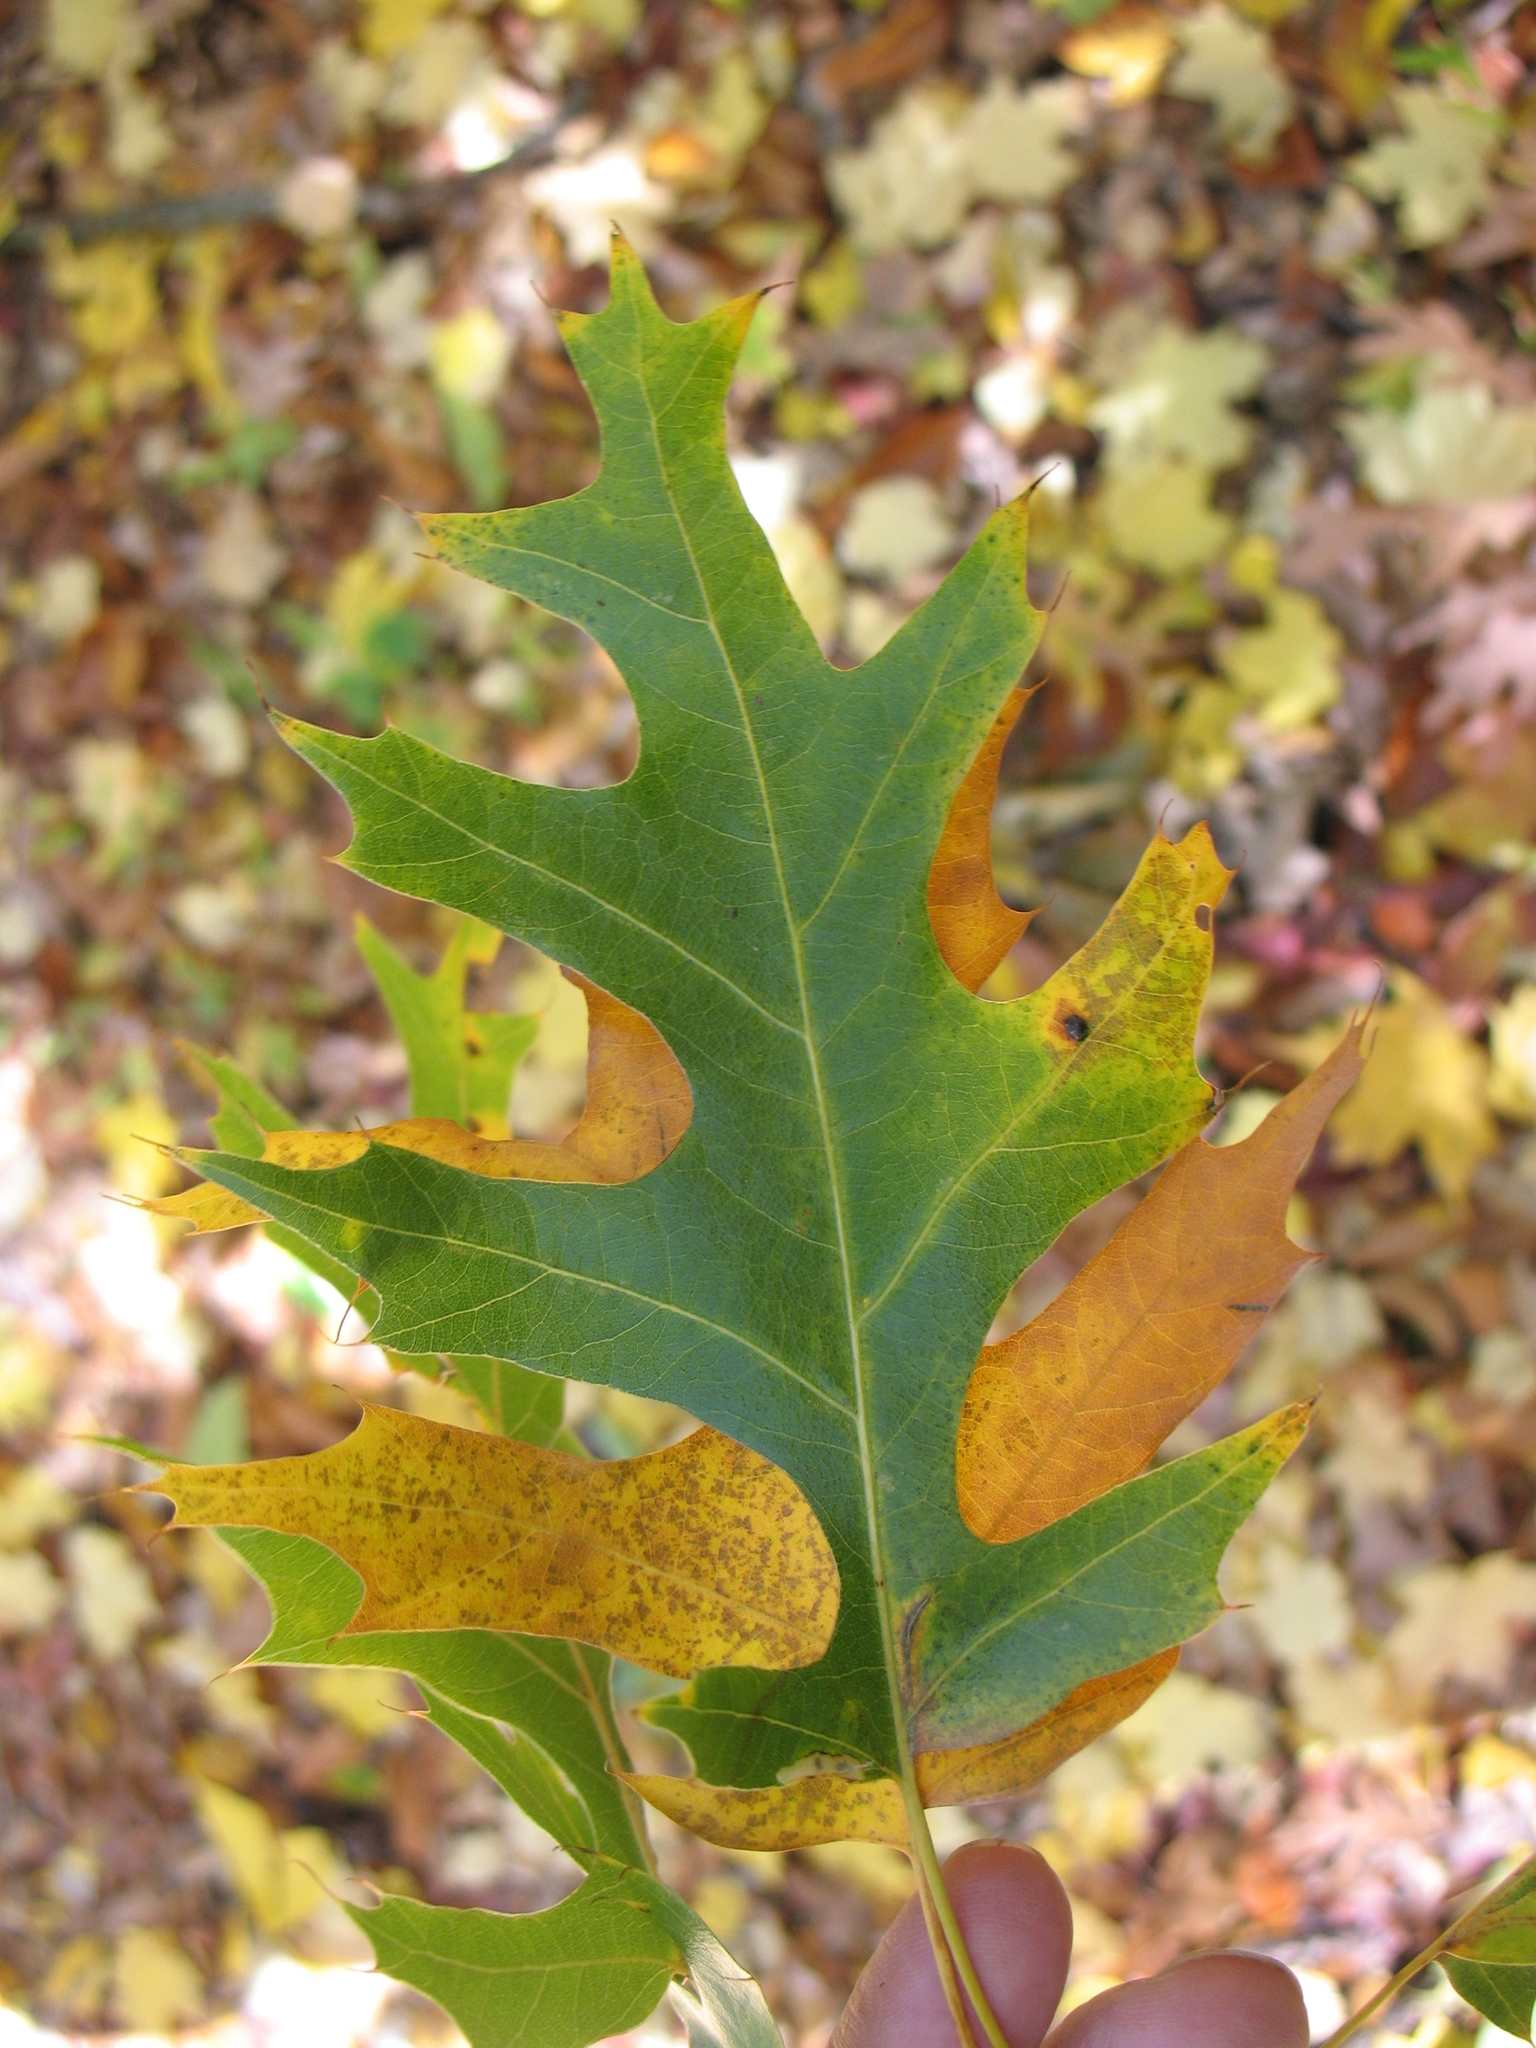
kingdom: Plantae
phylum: Tracheophyta
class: Magnoliopsida
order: Fagales
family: Fagaceae
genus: Quercus
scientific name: Quercus velutina
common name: Black oak
